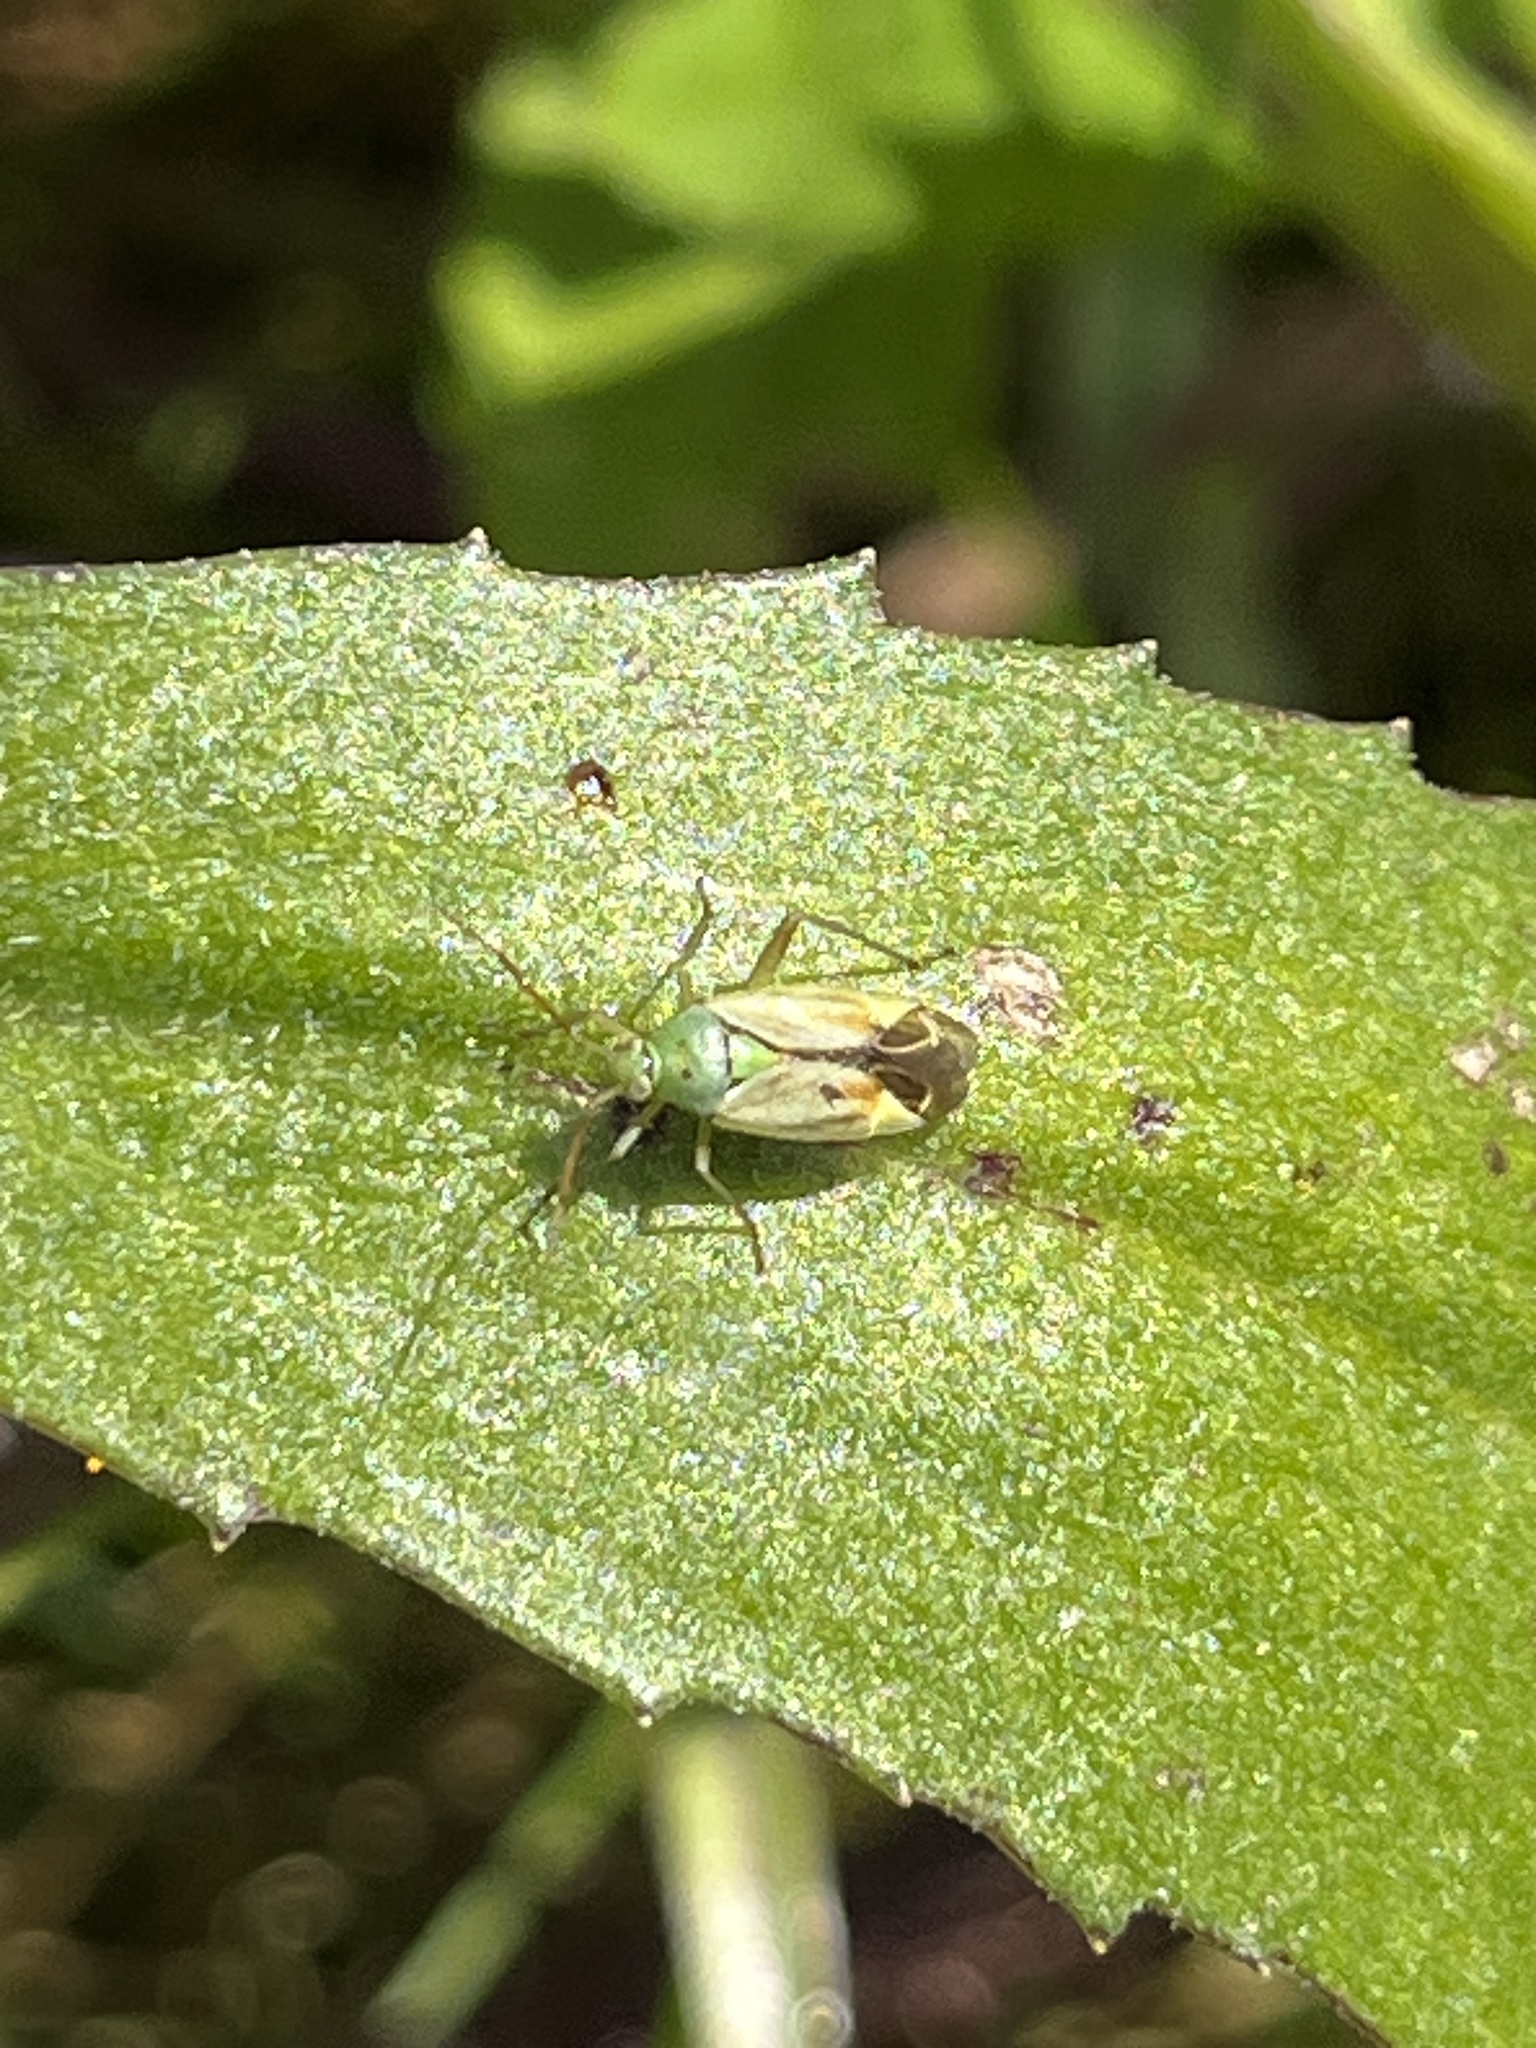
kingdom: Animalia
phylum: Arthropoda
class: Insecta
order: Hemiptera
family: Miridae
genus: Closterotomus
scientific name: Closterotomus norvegicus
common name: Plant bug
